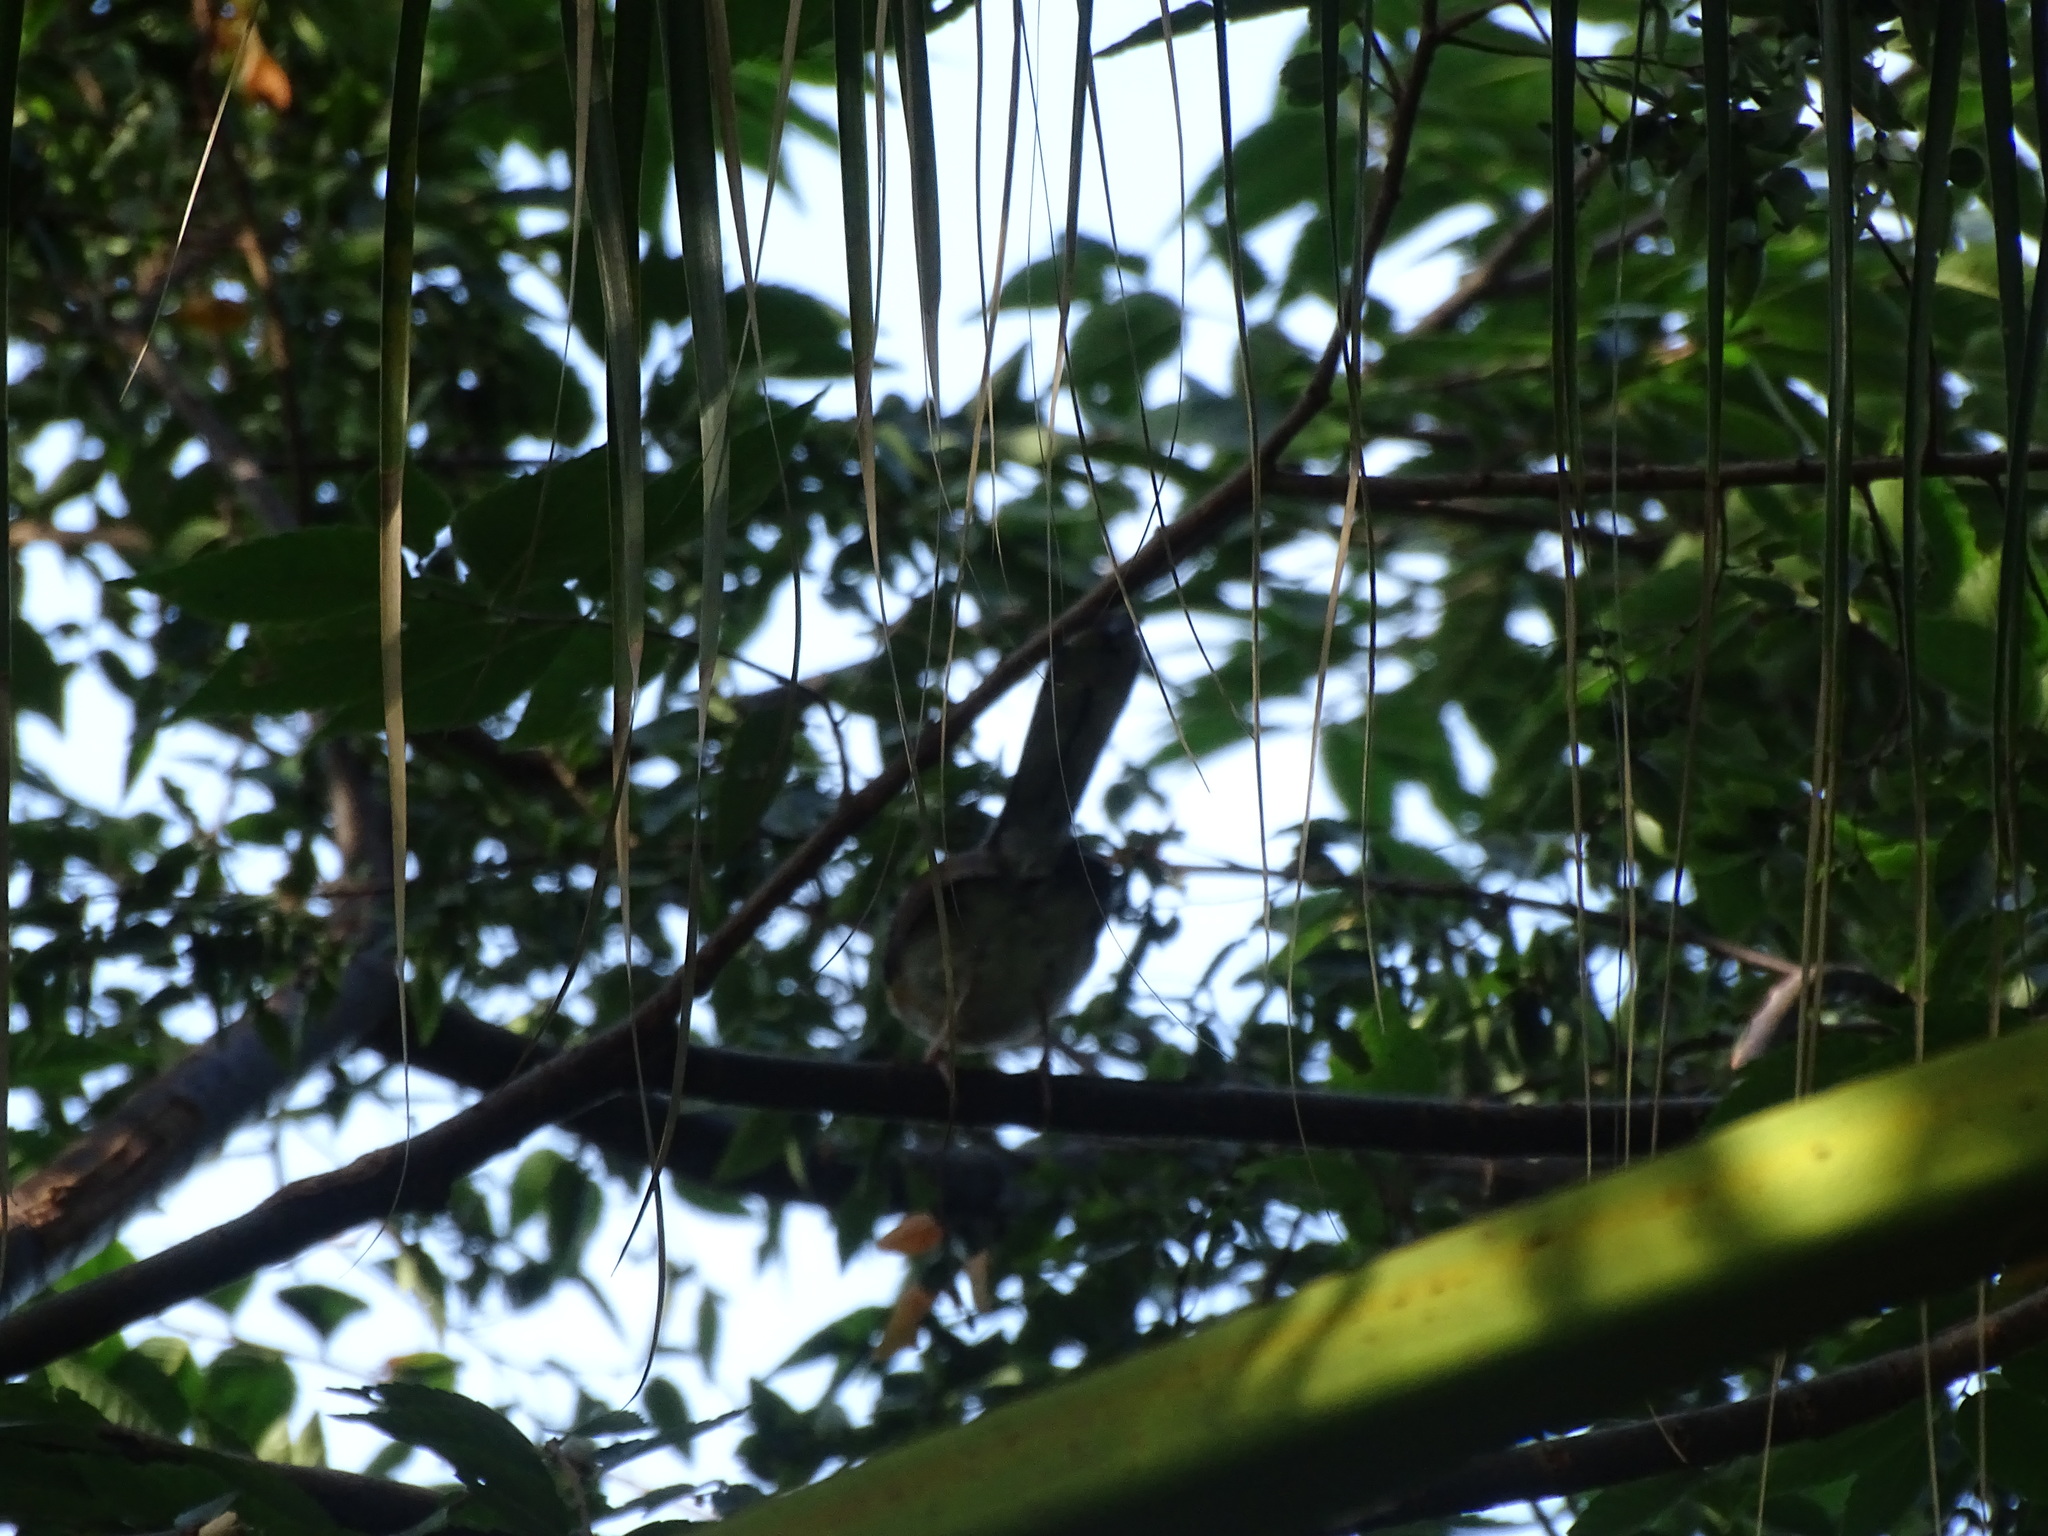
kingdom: Animalia
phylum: Chordata
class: Aves
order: Passeriformes
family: Muscicapidae
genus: Copsychus
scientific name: Copsychus malabaricus
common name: White-rumped shama
